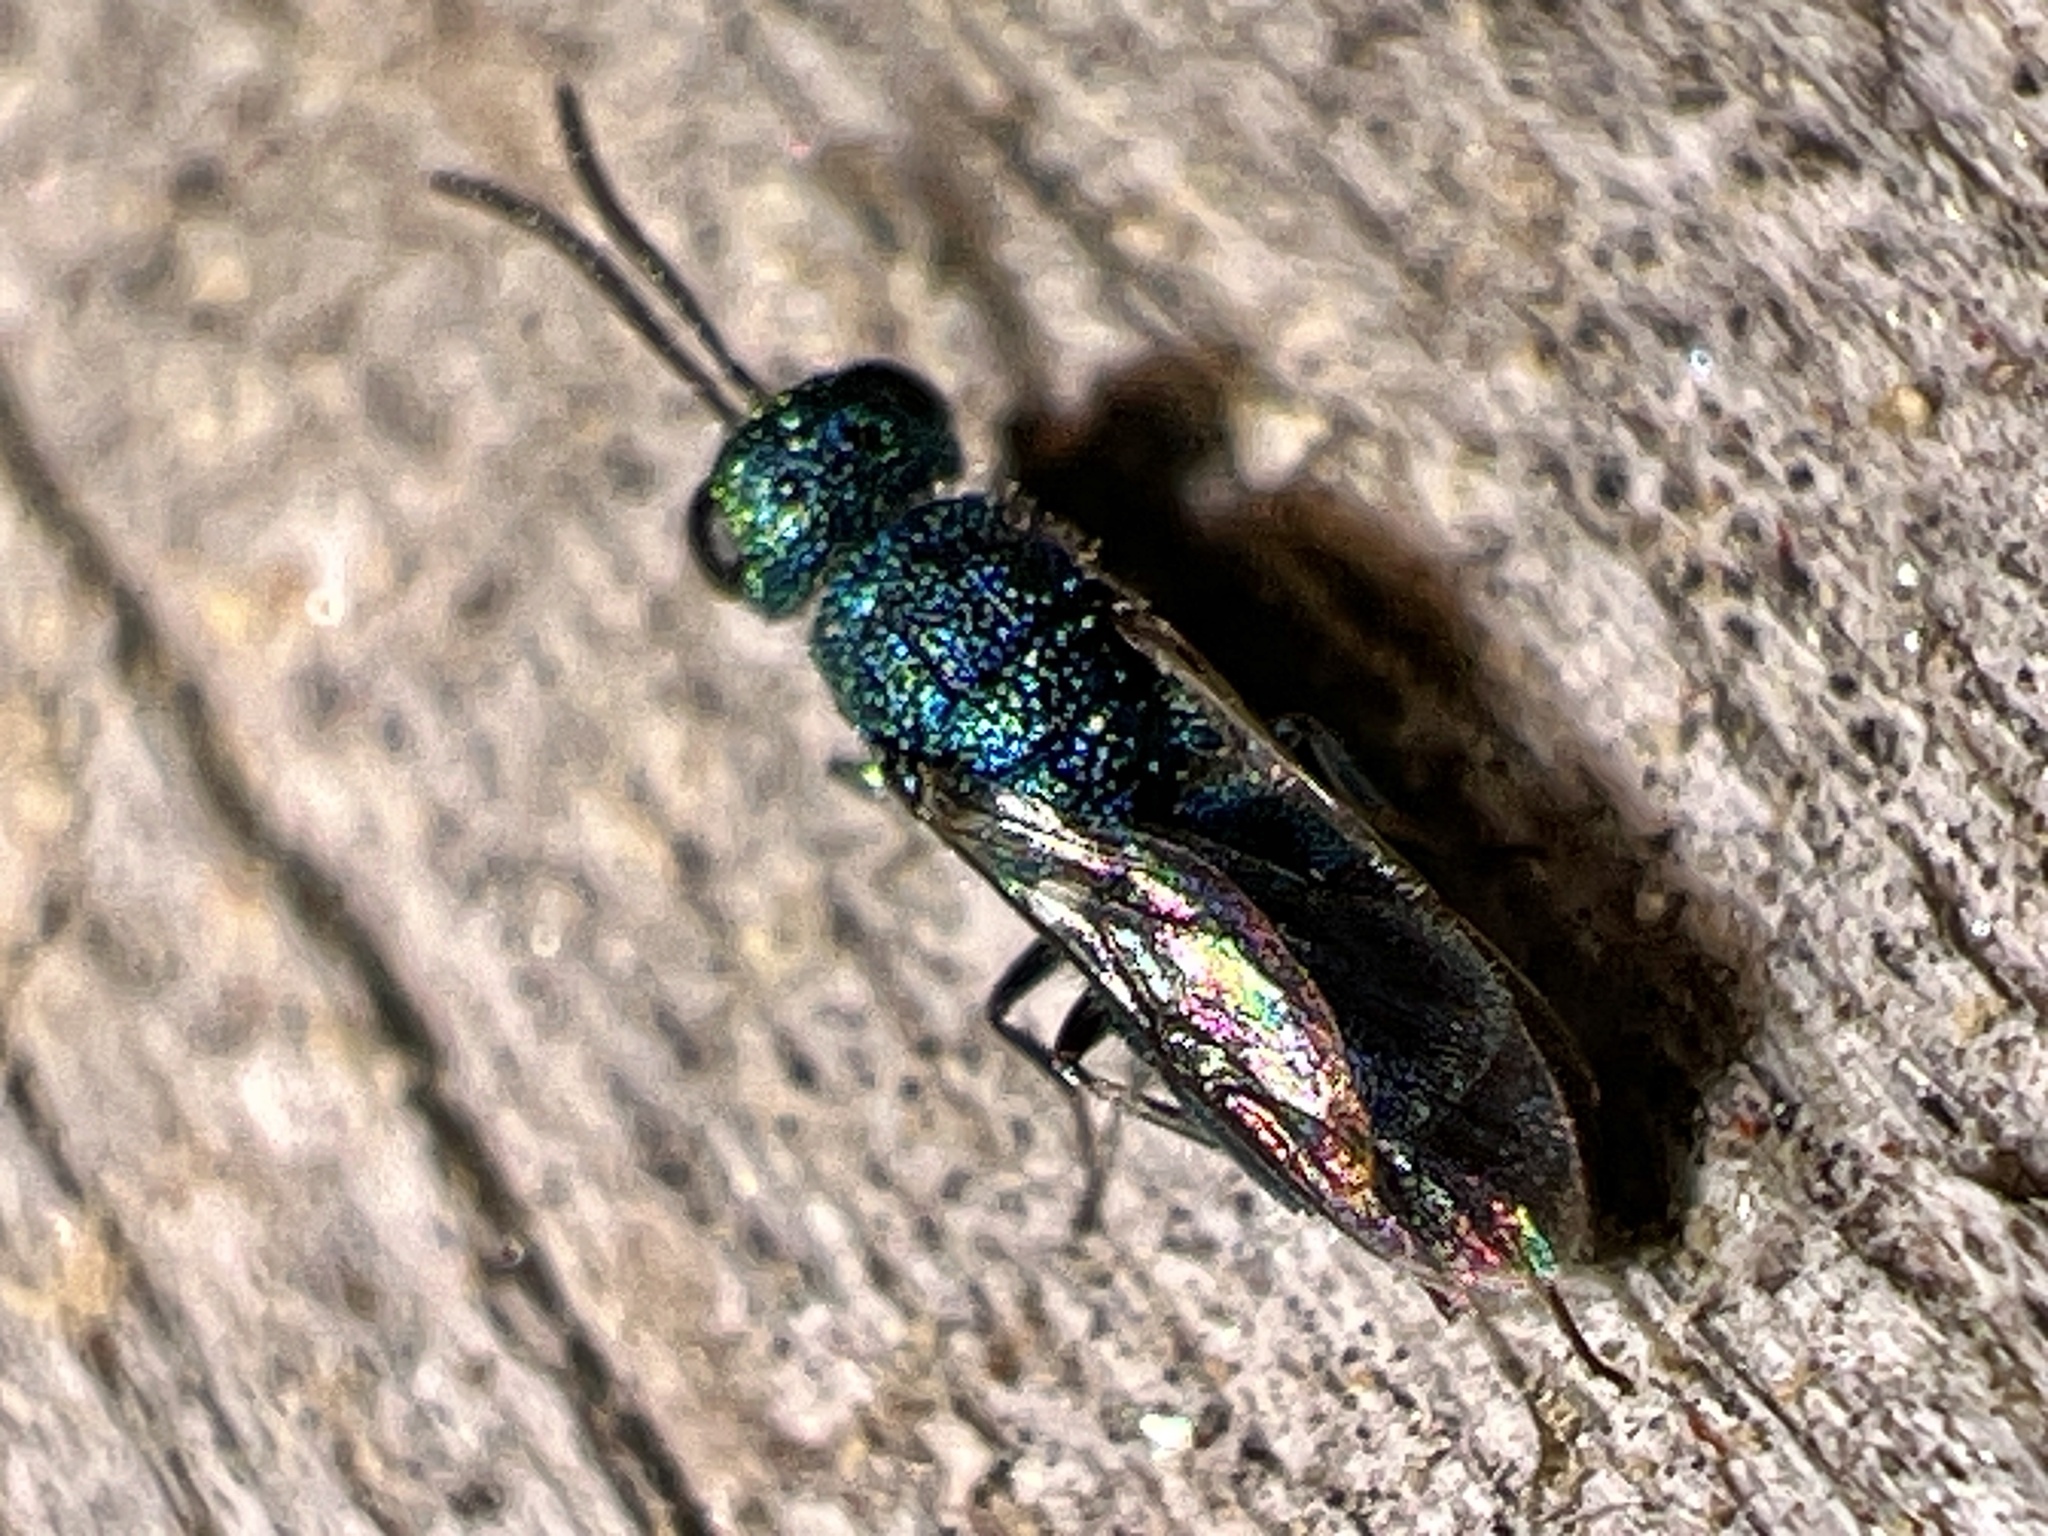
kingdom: Animalia
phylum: Arthropoda
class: Insecta
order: Hymenoptera
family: Chrysididae
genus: Caenochrysis
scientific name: Caenochrysis
